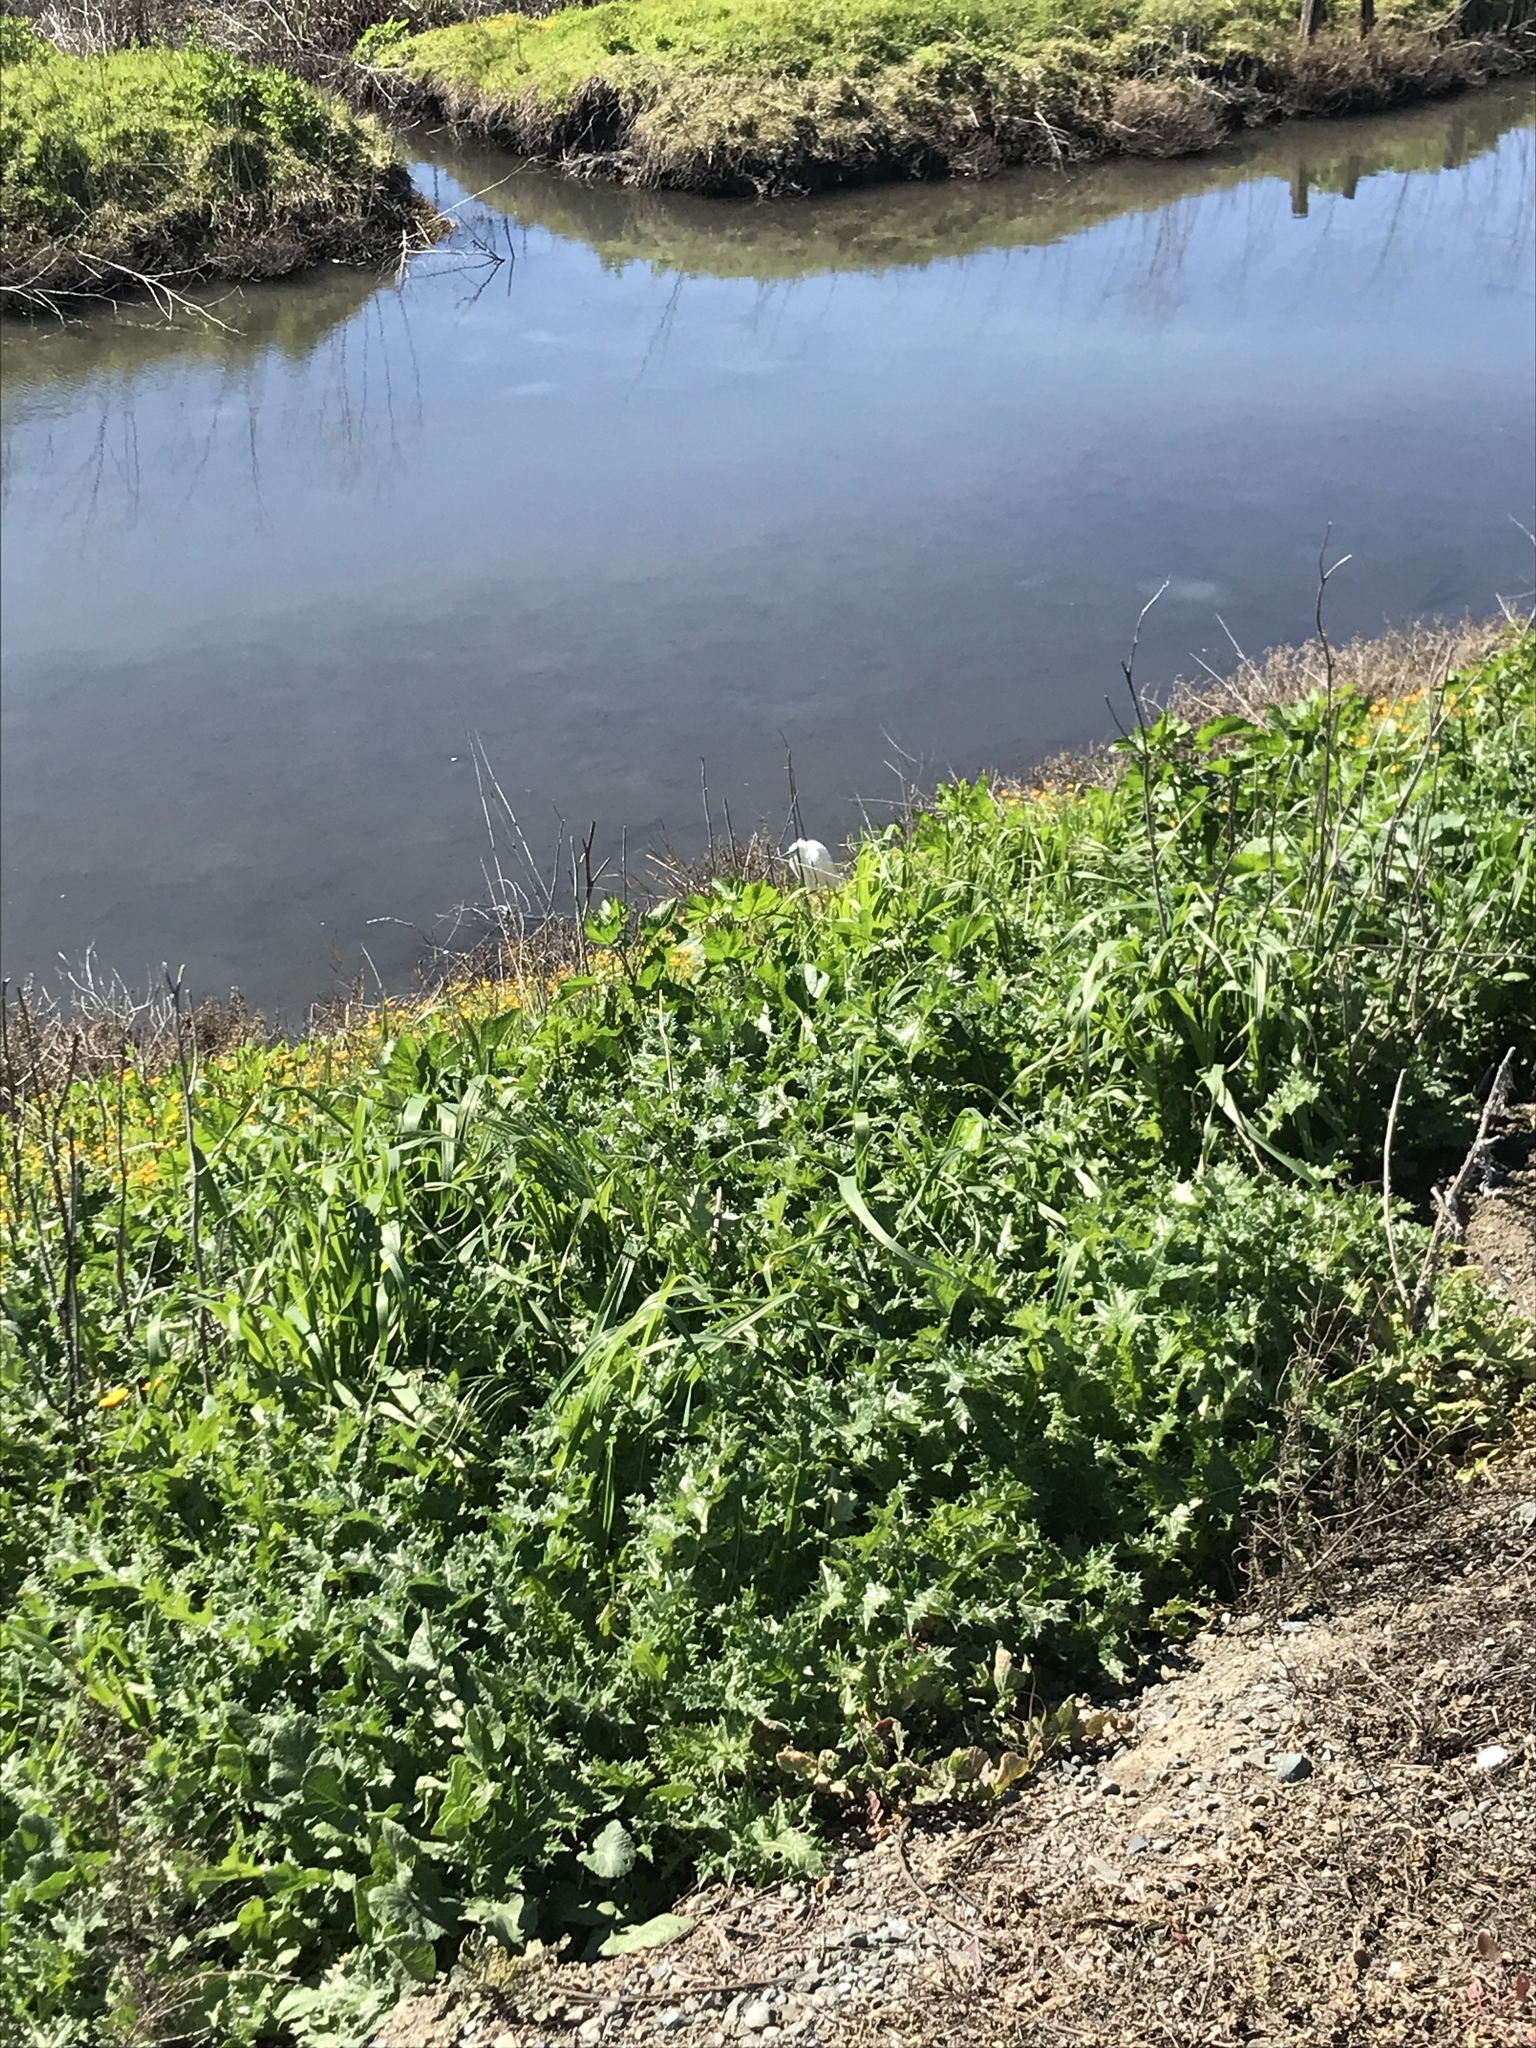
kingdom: Animalia
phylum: Chordata
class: Aves
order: Pelecaniformes
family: Ardeidae
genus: Egretta
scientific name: Egretta thula
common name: Snowy egret
